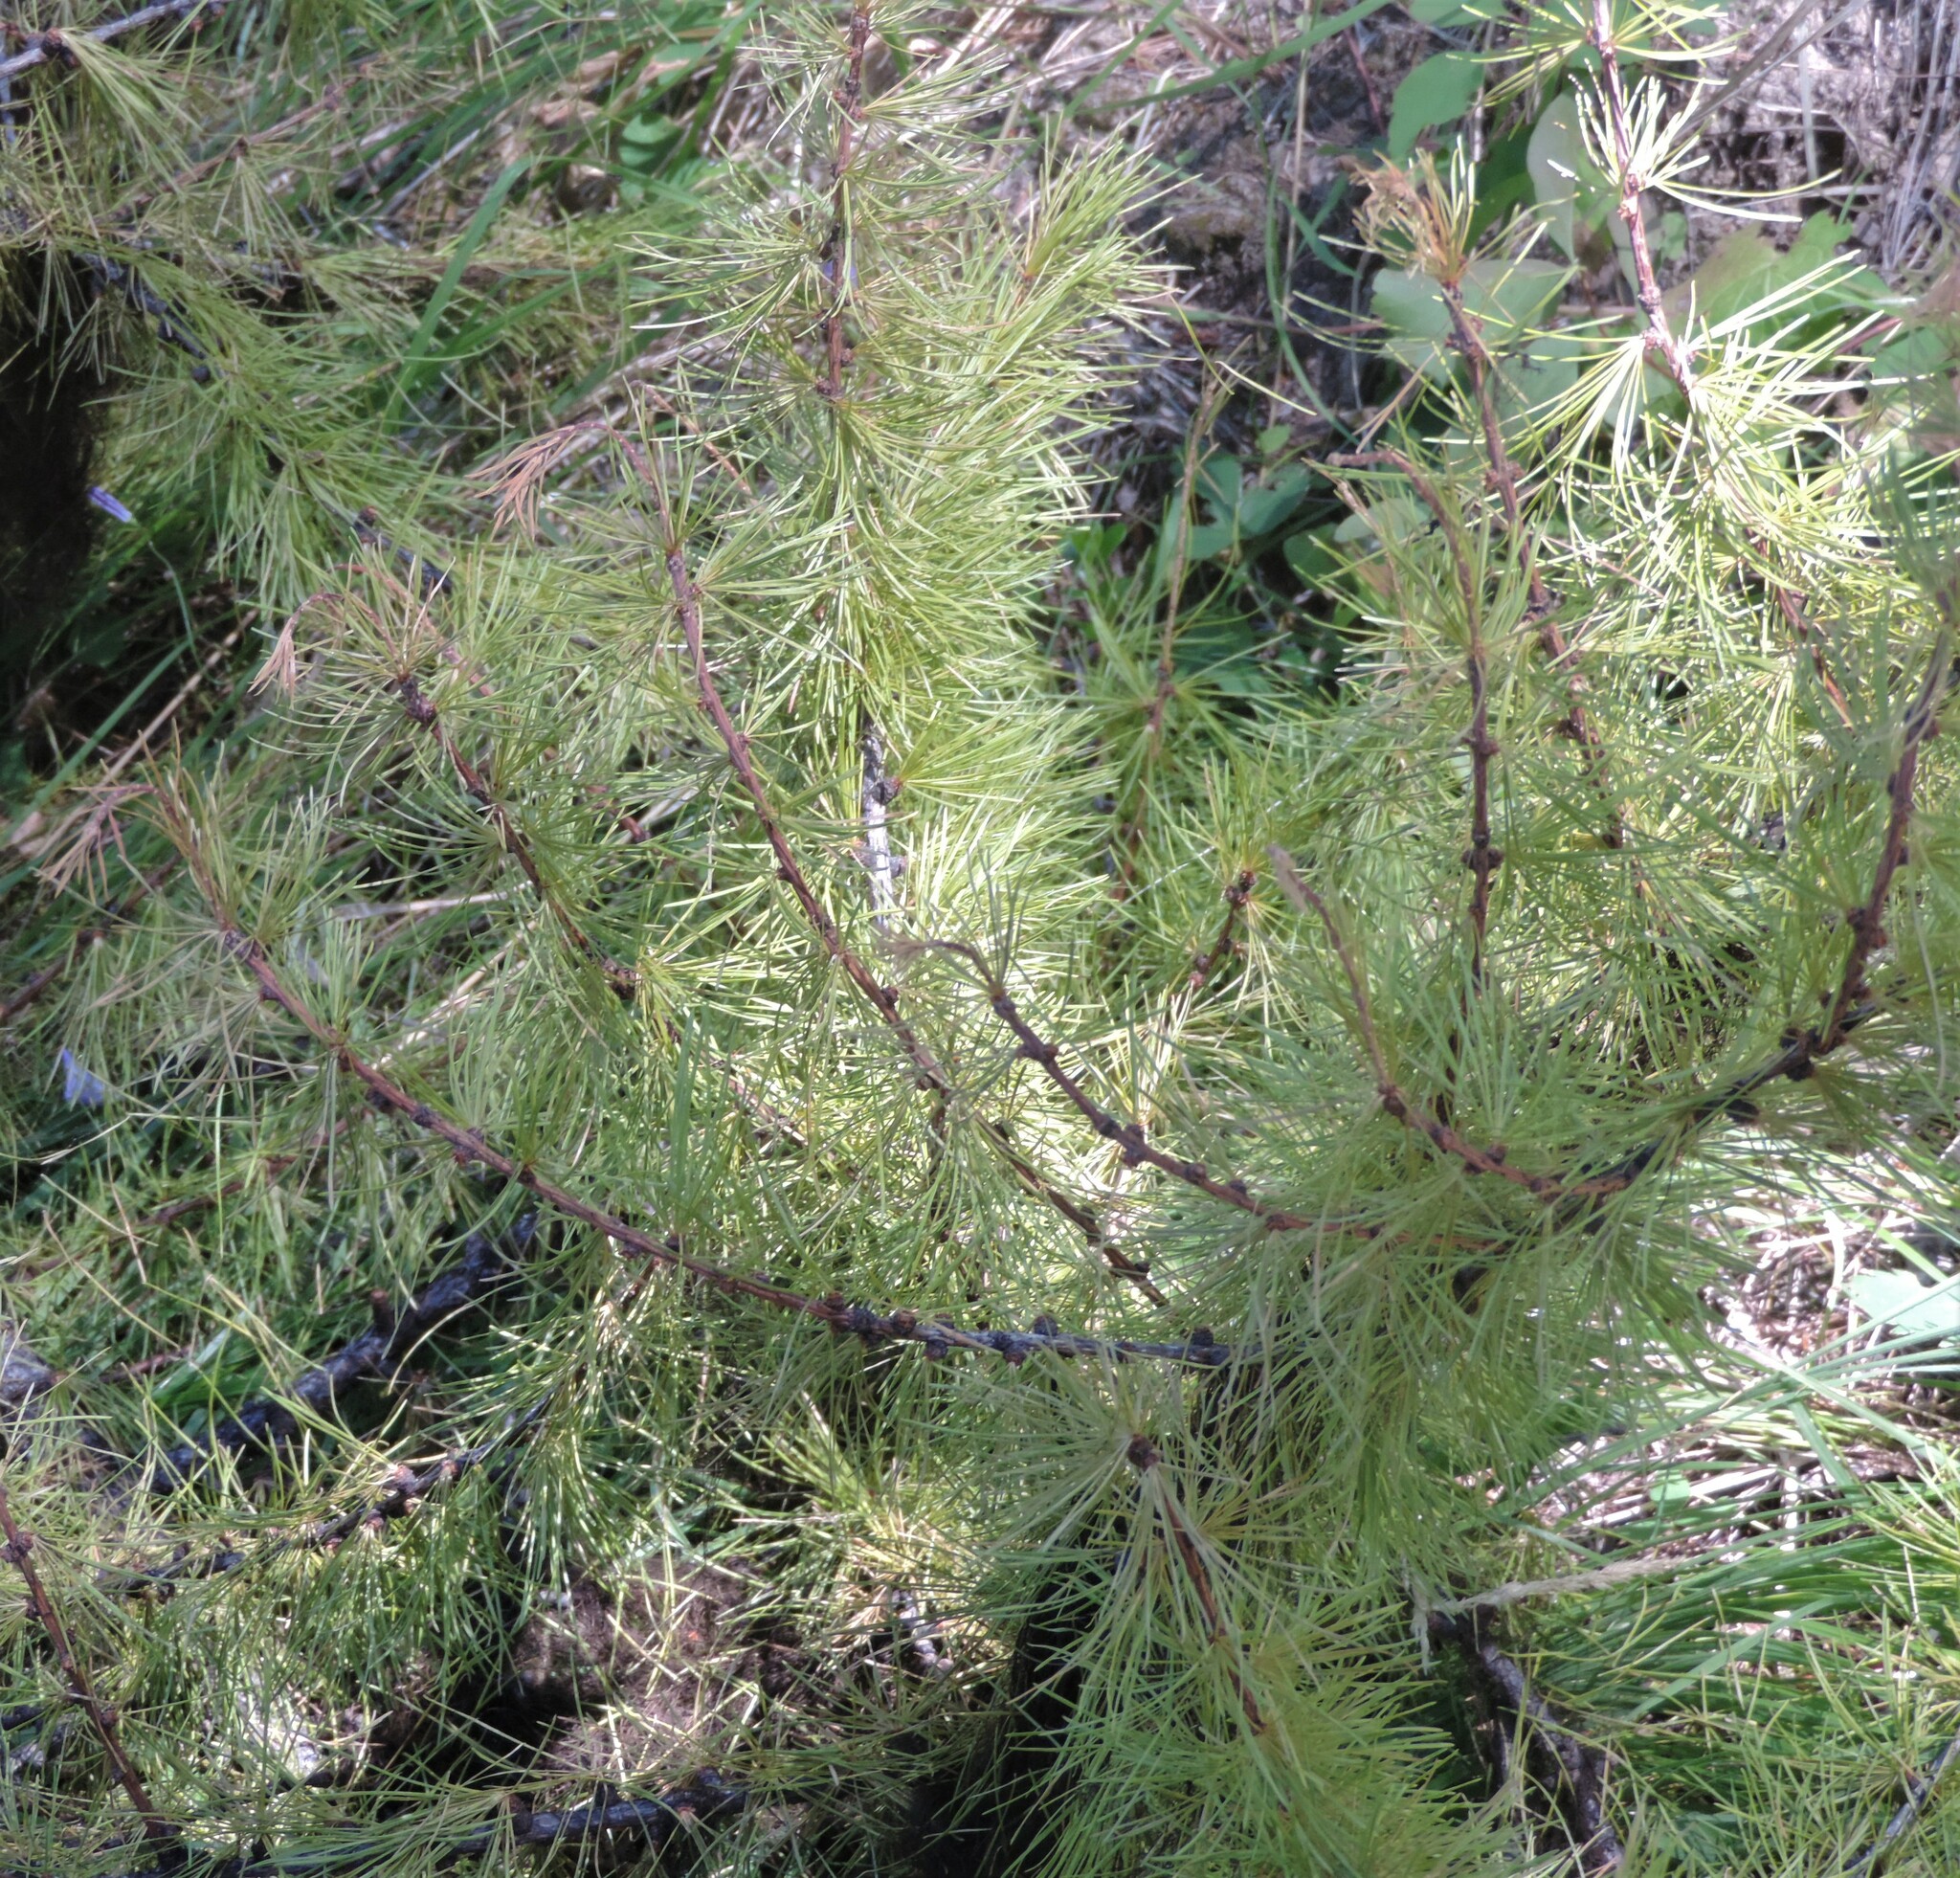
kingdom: Plantae
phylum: Tracheophyta
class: Pinopsida
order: Pinales
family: Pinaceae
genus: Larix
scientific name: Larix occidentalis
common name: Western larch
